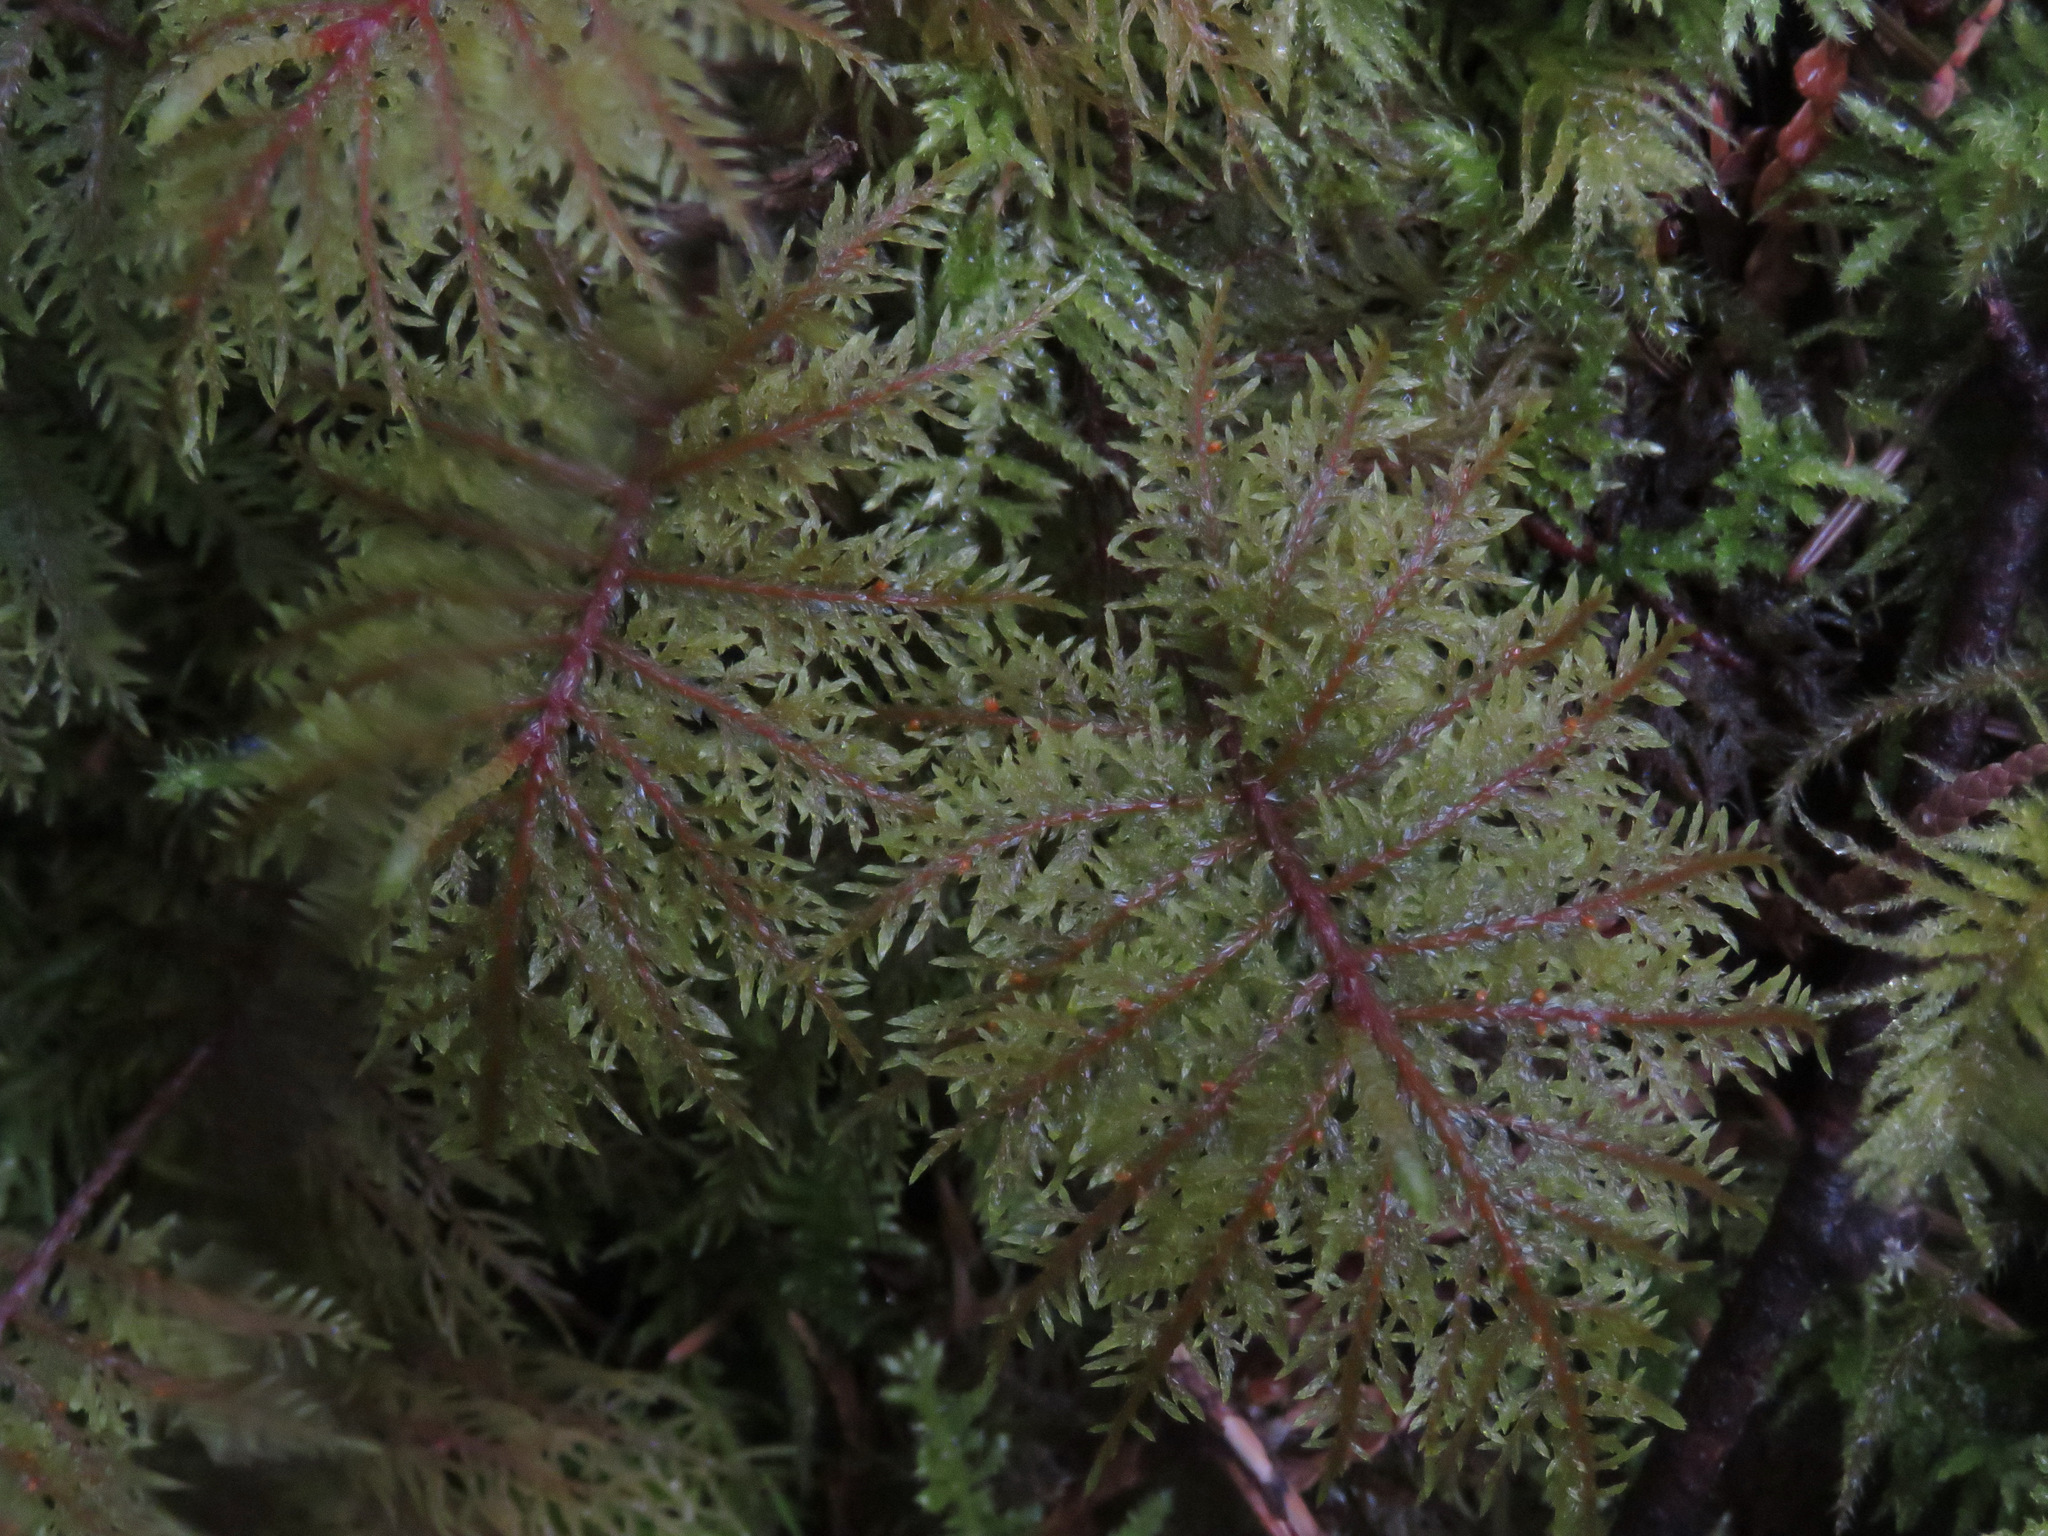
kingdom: Plantae
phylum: Bryophyta
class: Bryopsida
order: Hypnales
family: Hylocomiaceae
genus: Hylocomium
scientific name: Hylocomium splendens
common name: Stairstep moss
